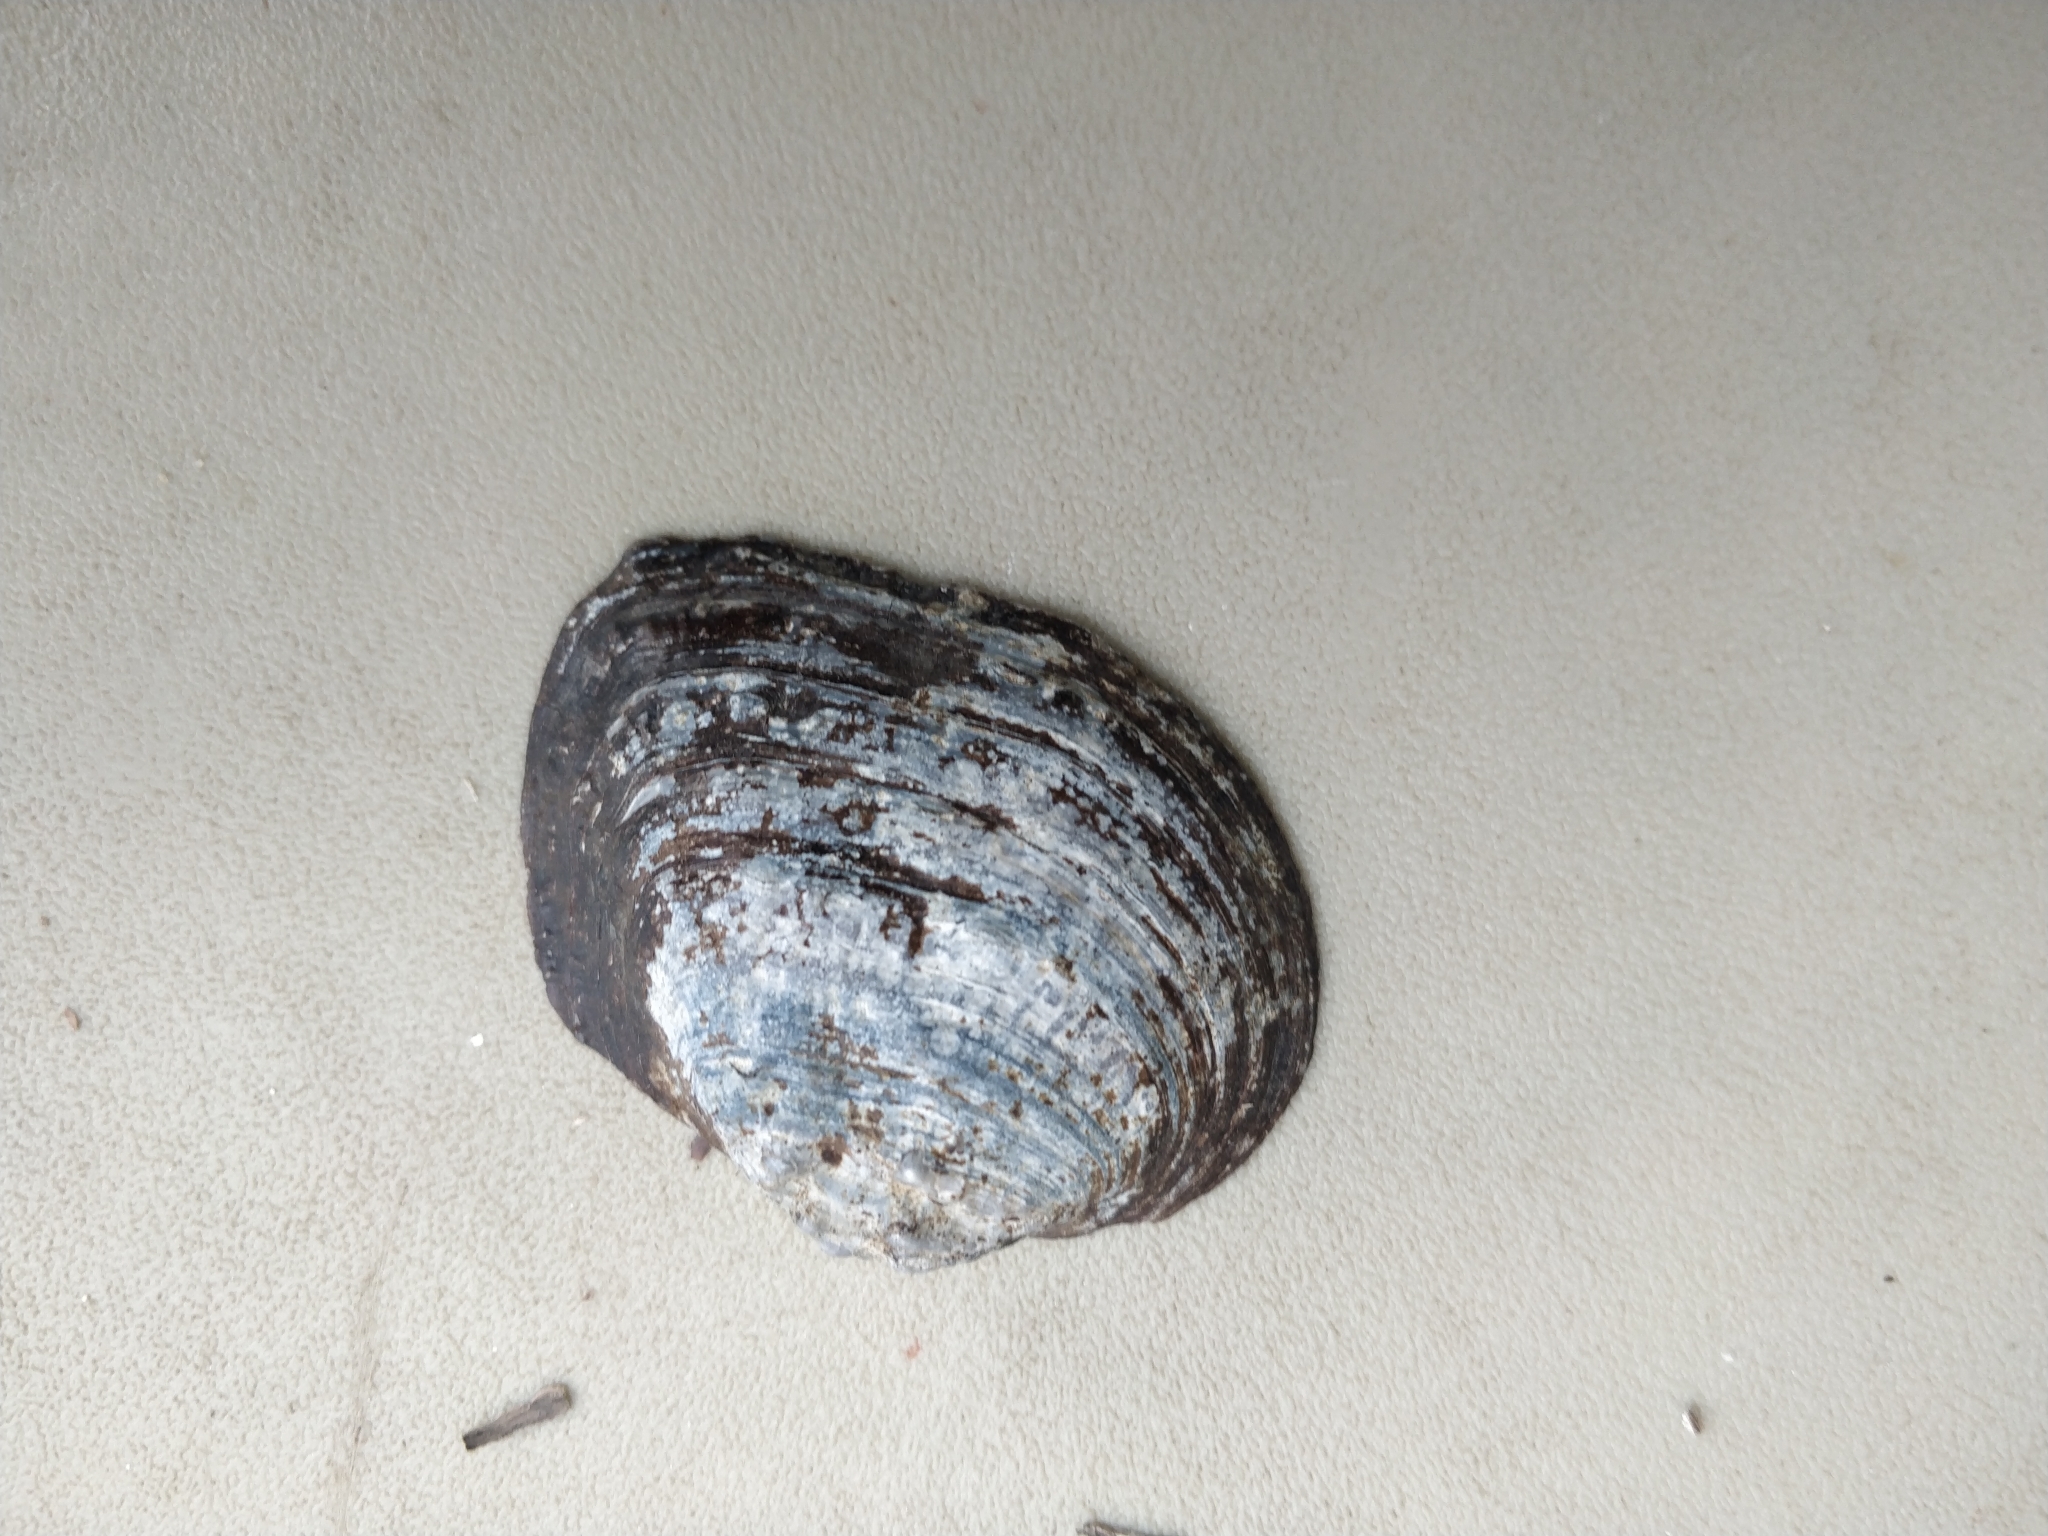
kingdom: Animalia
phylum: Mollusca
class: Bivalvia
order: Unionida
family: Unionidae
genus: Arcidens
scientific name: Arcidens confragosus
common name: Rock pocketbook
